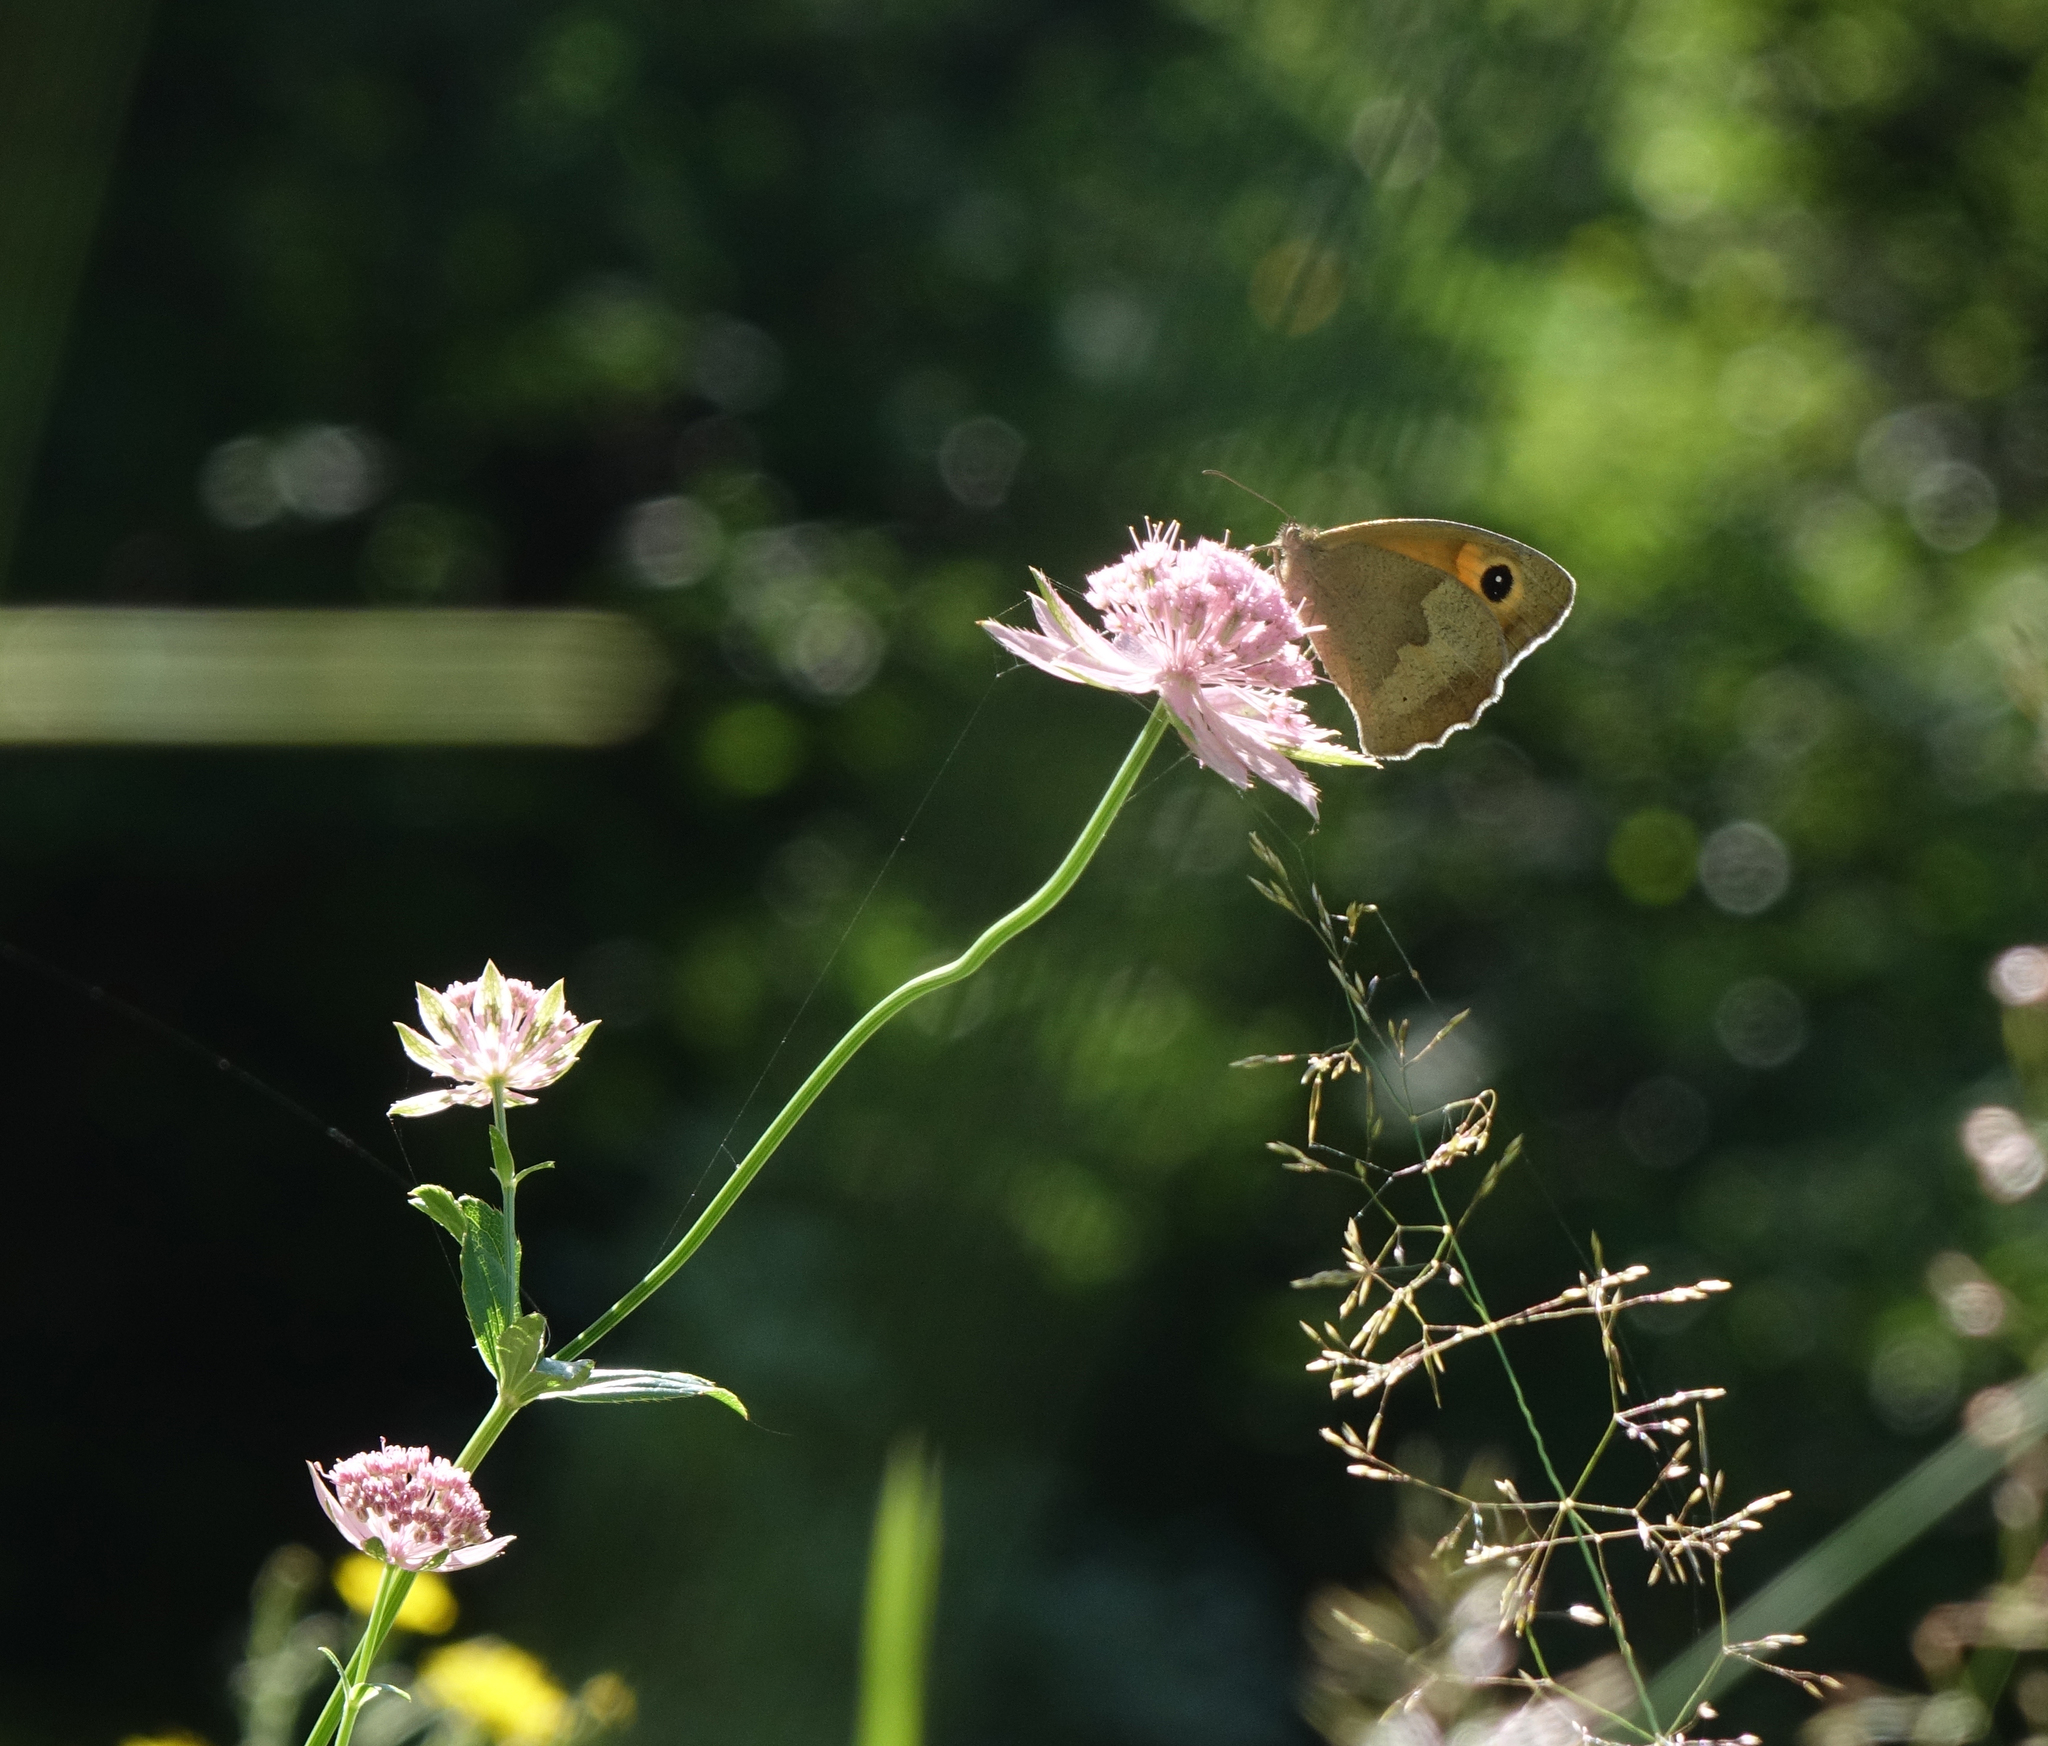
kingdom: Animalia
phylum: Arthropoda
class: Insecta
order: Lepidoptera
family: Nymphalidae
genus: Maniola
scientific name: Maniola jurtina
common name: Meadow brown
